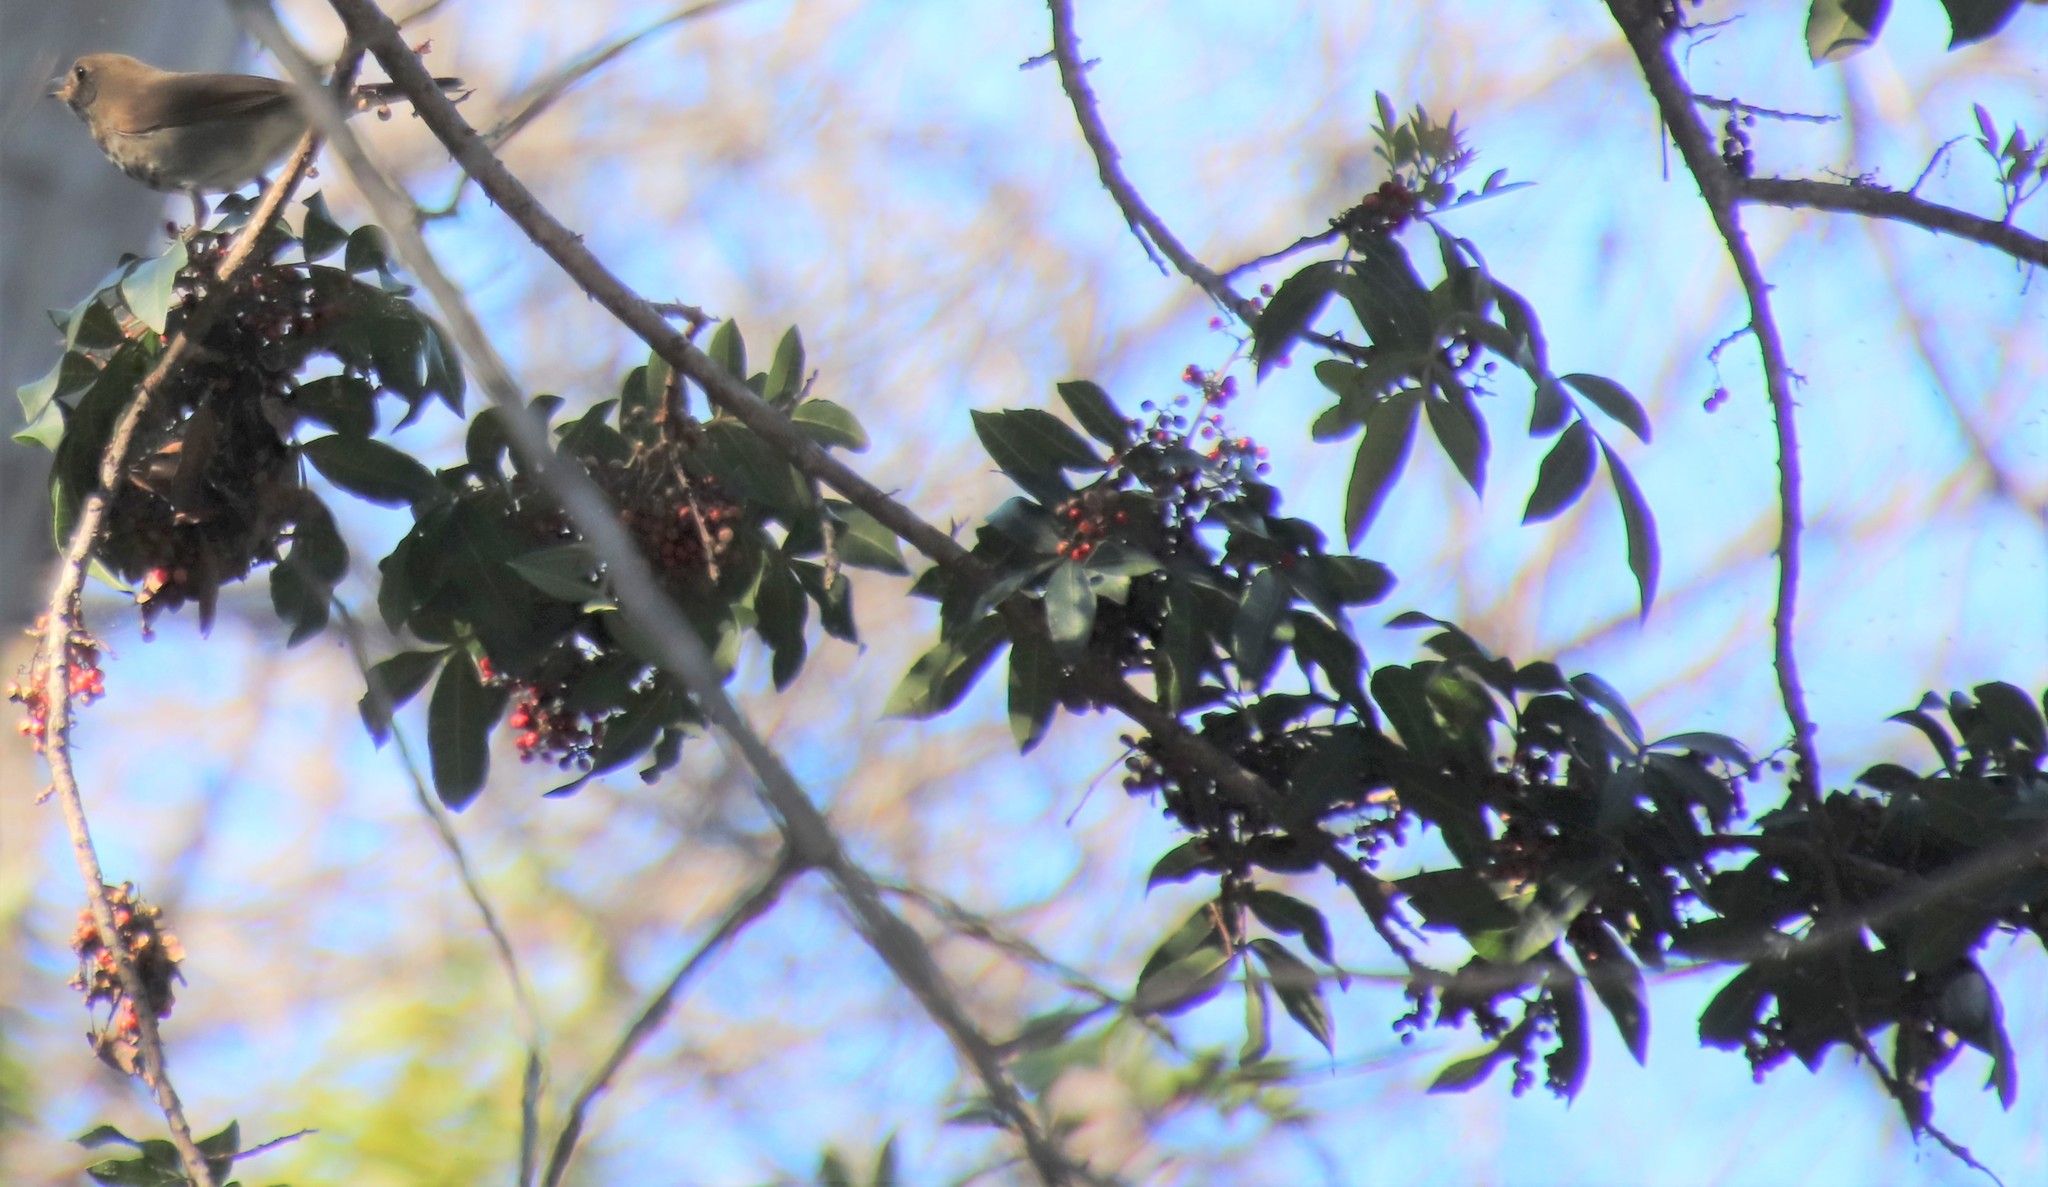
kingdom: Plantae
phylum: Tracheophyta
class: Magnoliopsida
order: Sapindales
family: Anacardiaceae
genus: Schinus
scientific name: Schinus terebinthifolia
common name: Brazilian peppertree
